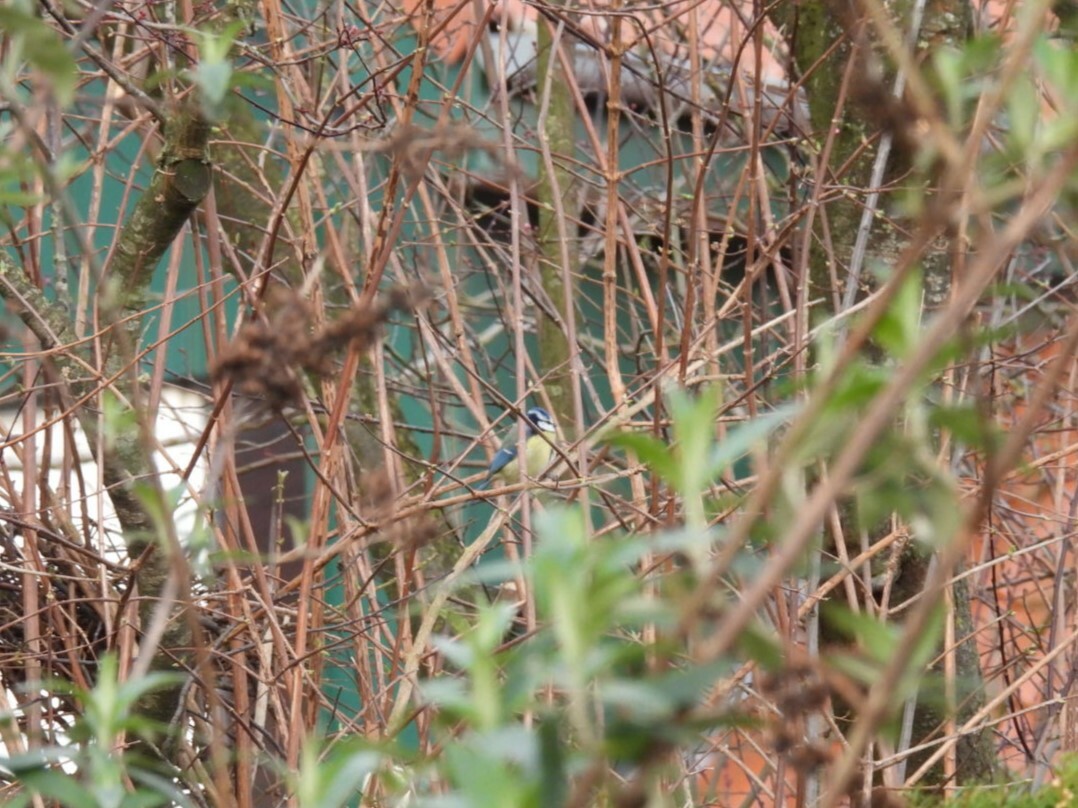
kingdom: Animalia
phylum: Chordata
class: Aves
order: Passeriformes
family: Paridae
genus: Cyanistes
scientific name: Cyanistes caeruleus
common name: Eurasian blue tit
